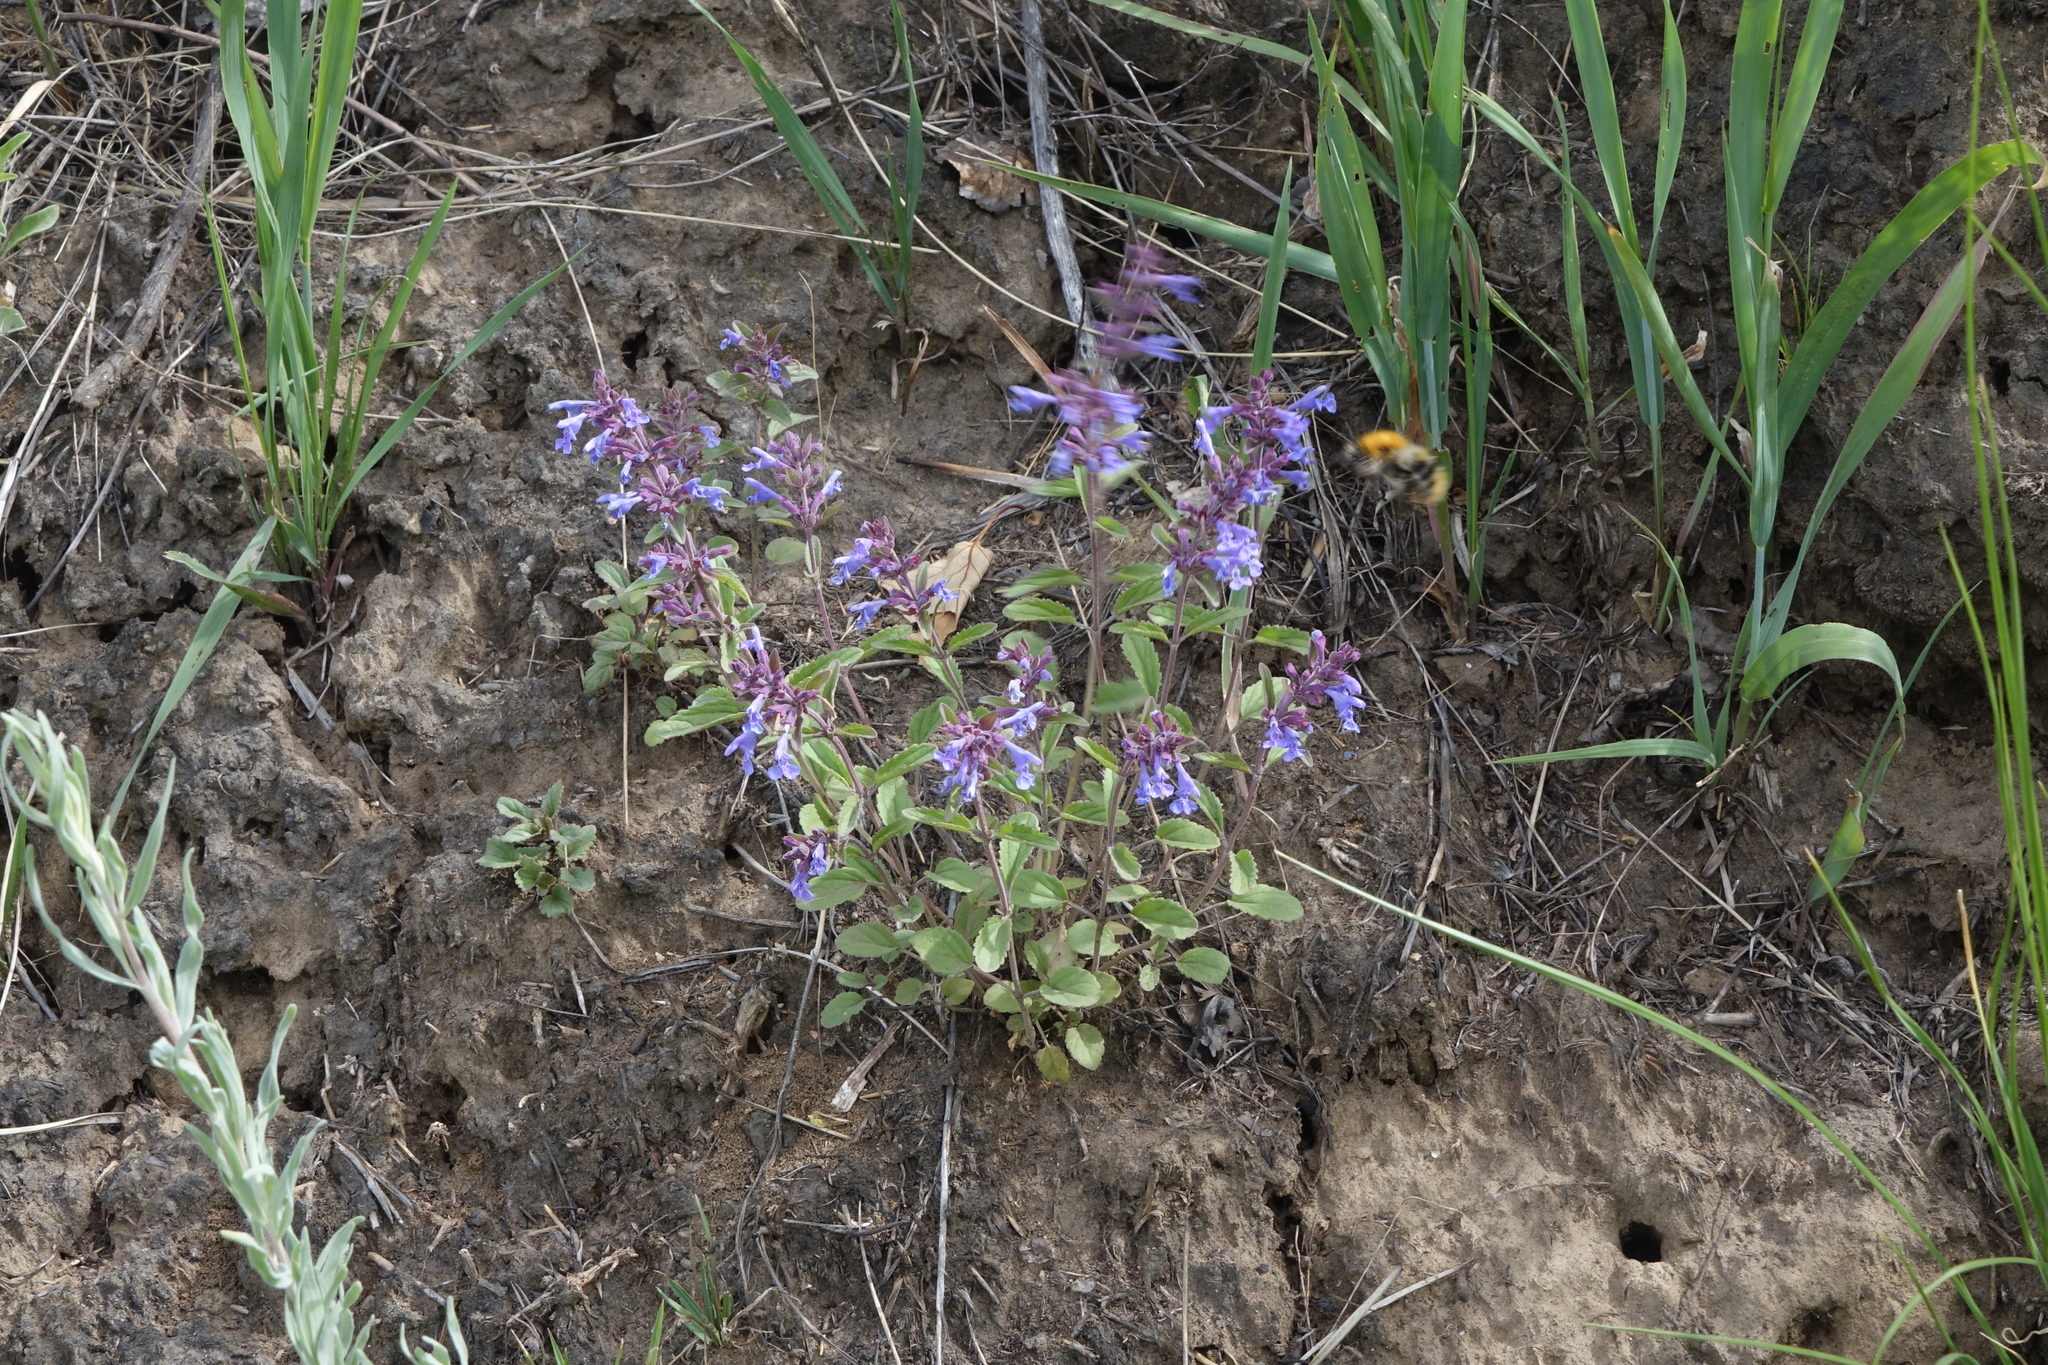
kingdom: Plantae
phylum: Tracheophyta
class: Magnoliopsida
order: Lamiales
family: Lamiaceae
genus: Dracocephalum
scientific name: Dracocephalum nutans
